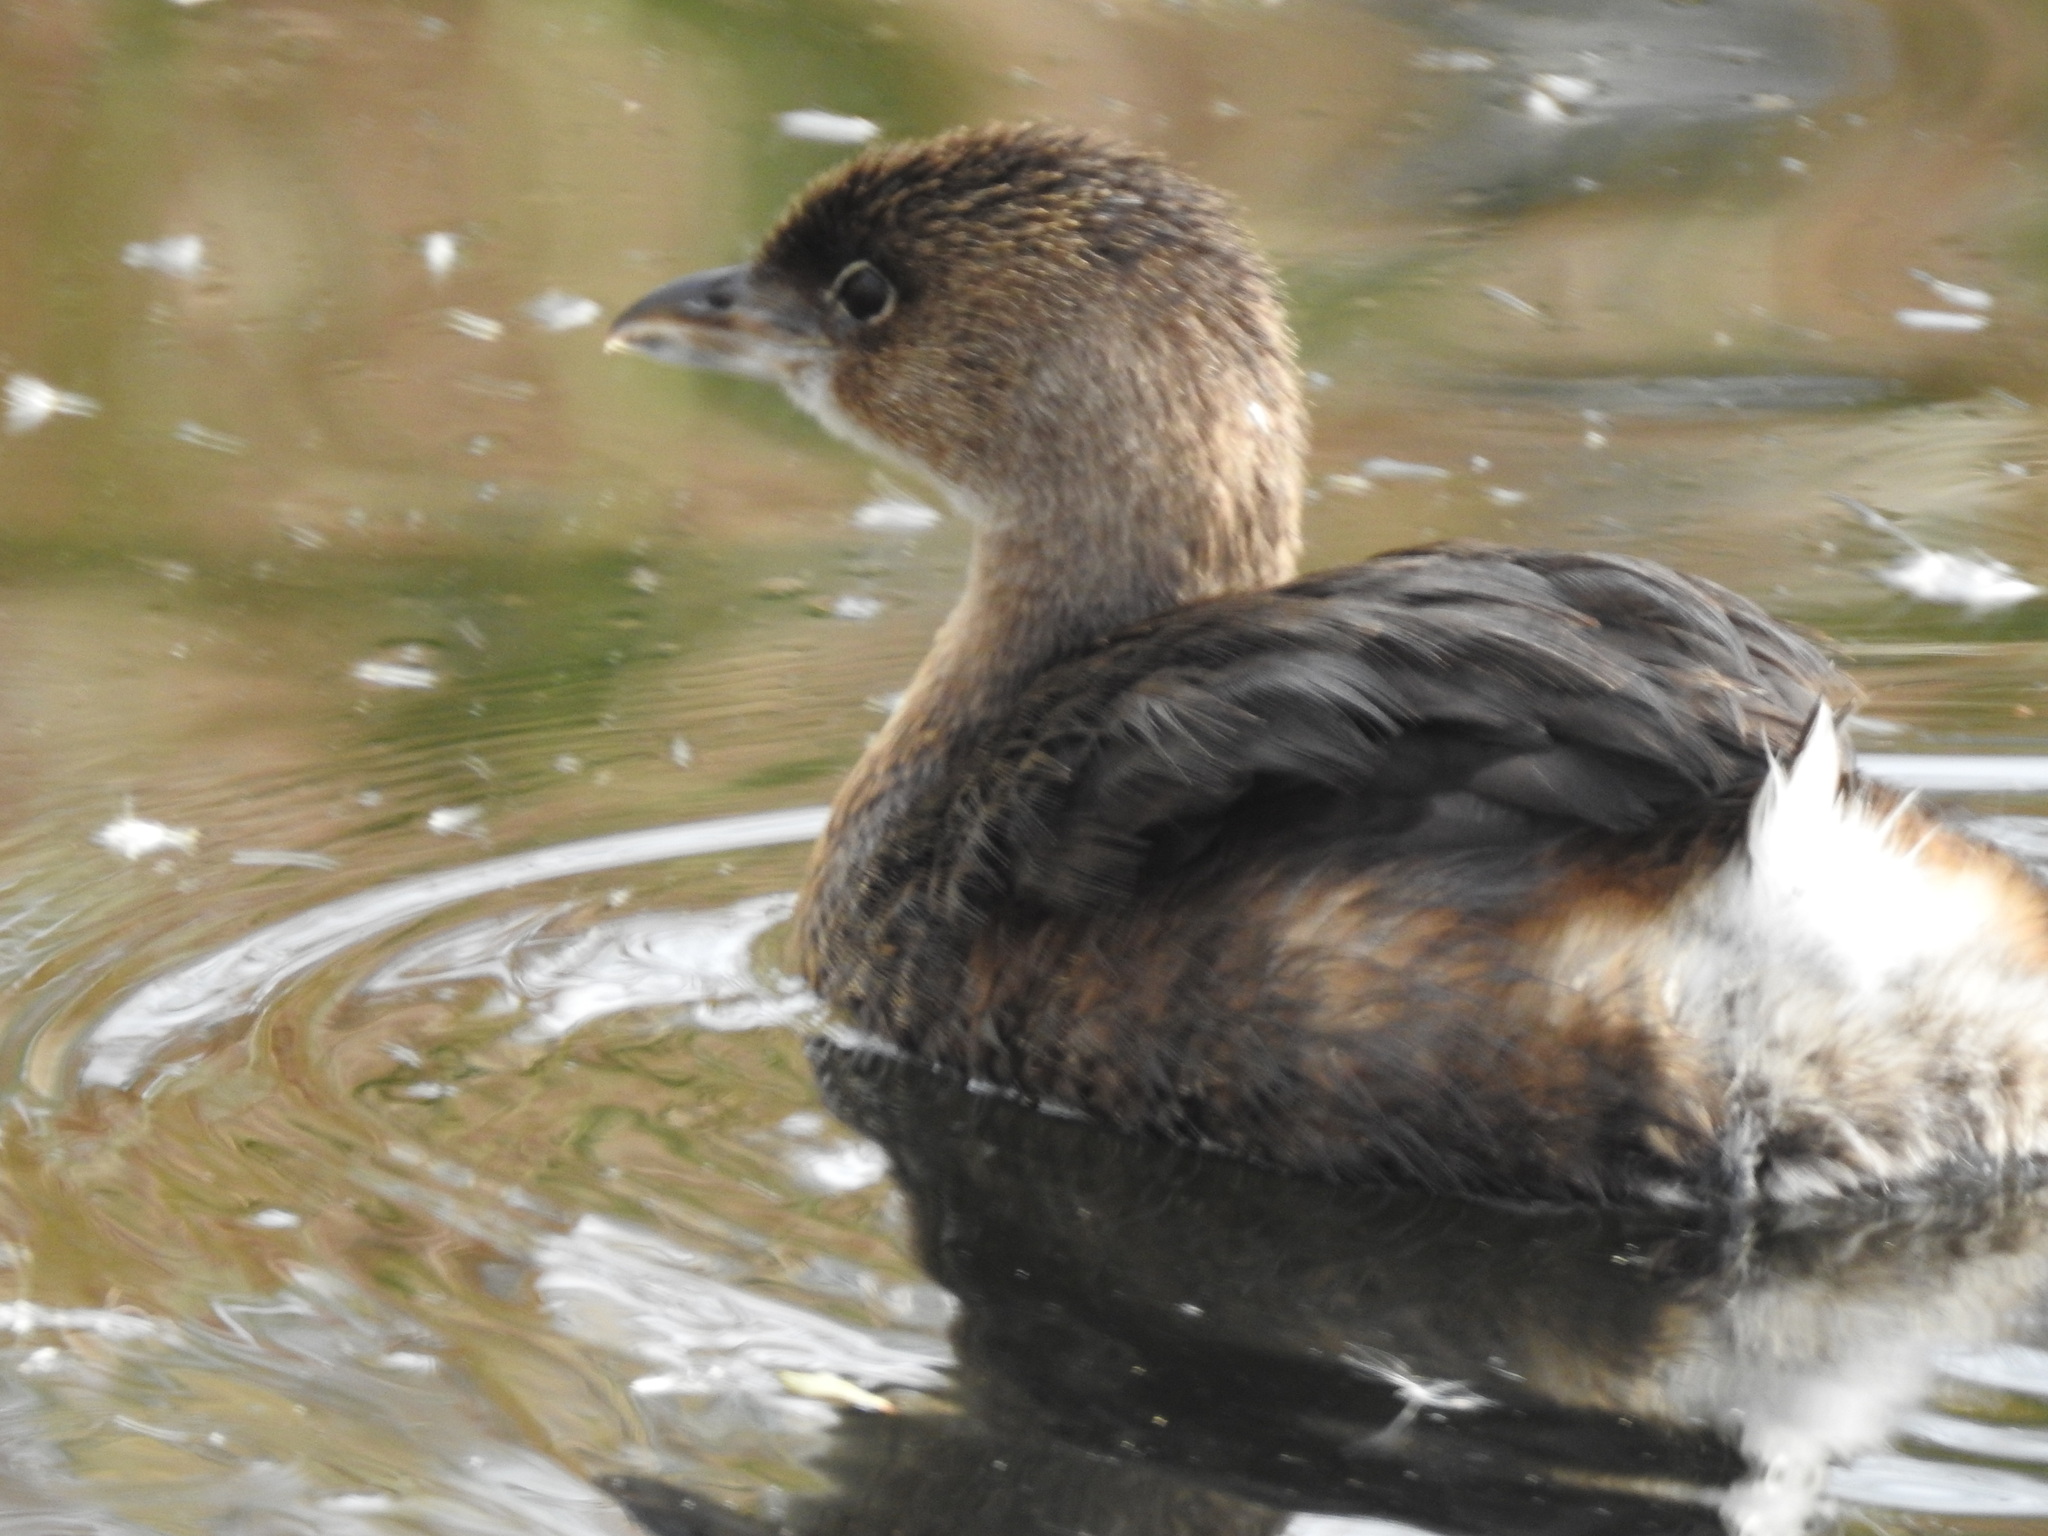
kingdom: Animalia
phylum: Chordata
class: Aves
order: Podicipediformes
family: Podicipedidae
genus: Podilymbus
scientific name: Podilymbus podiceps
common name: Pied-billed grebe
